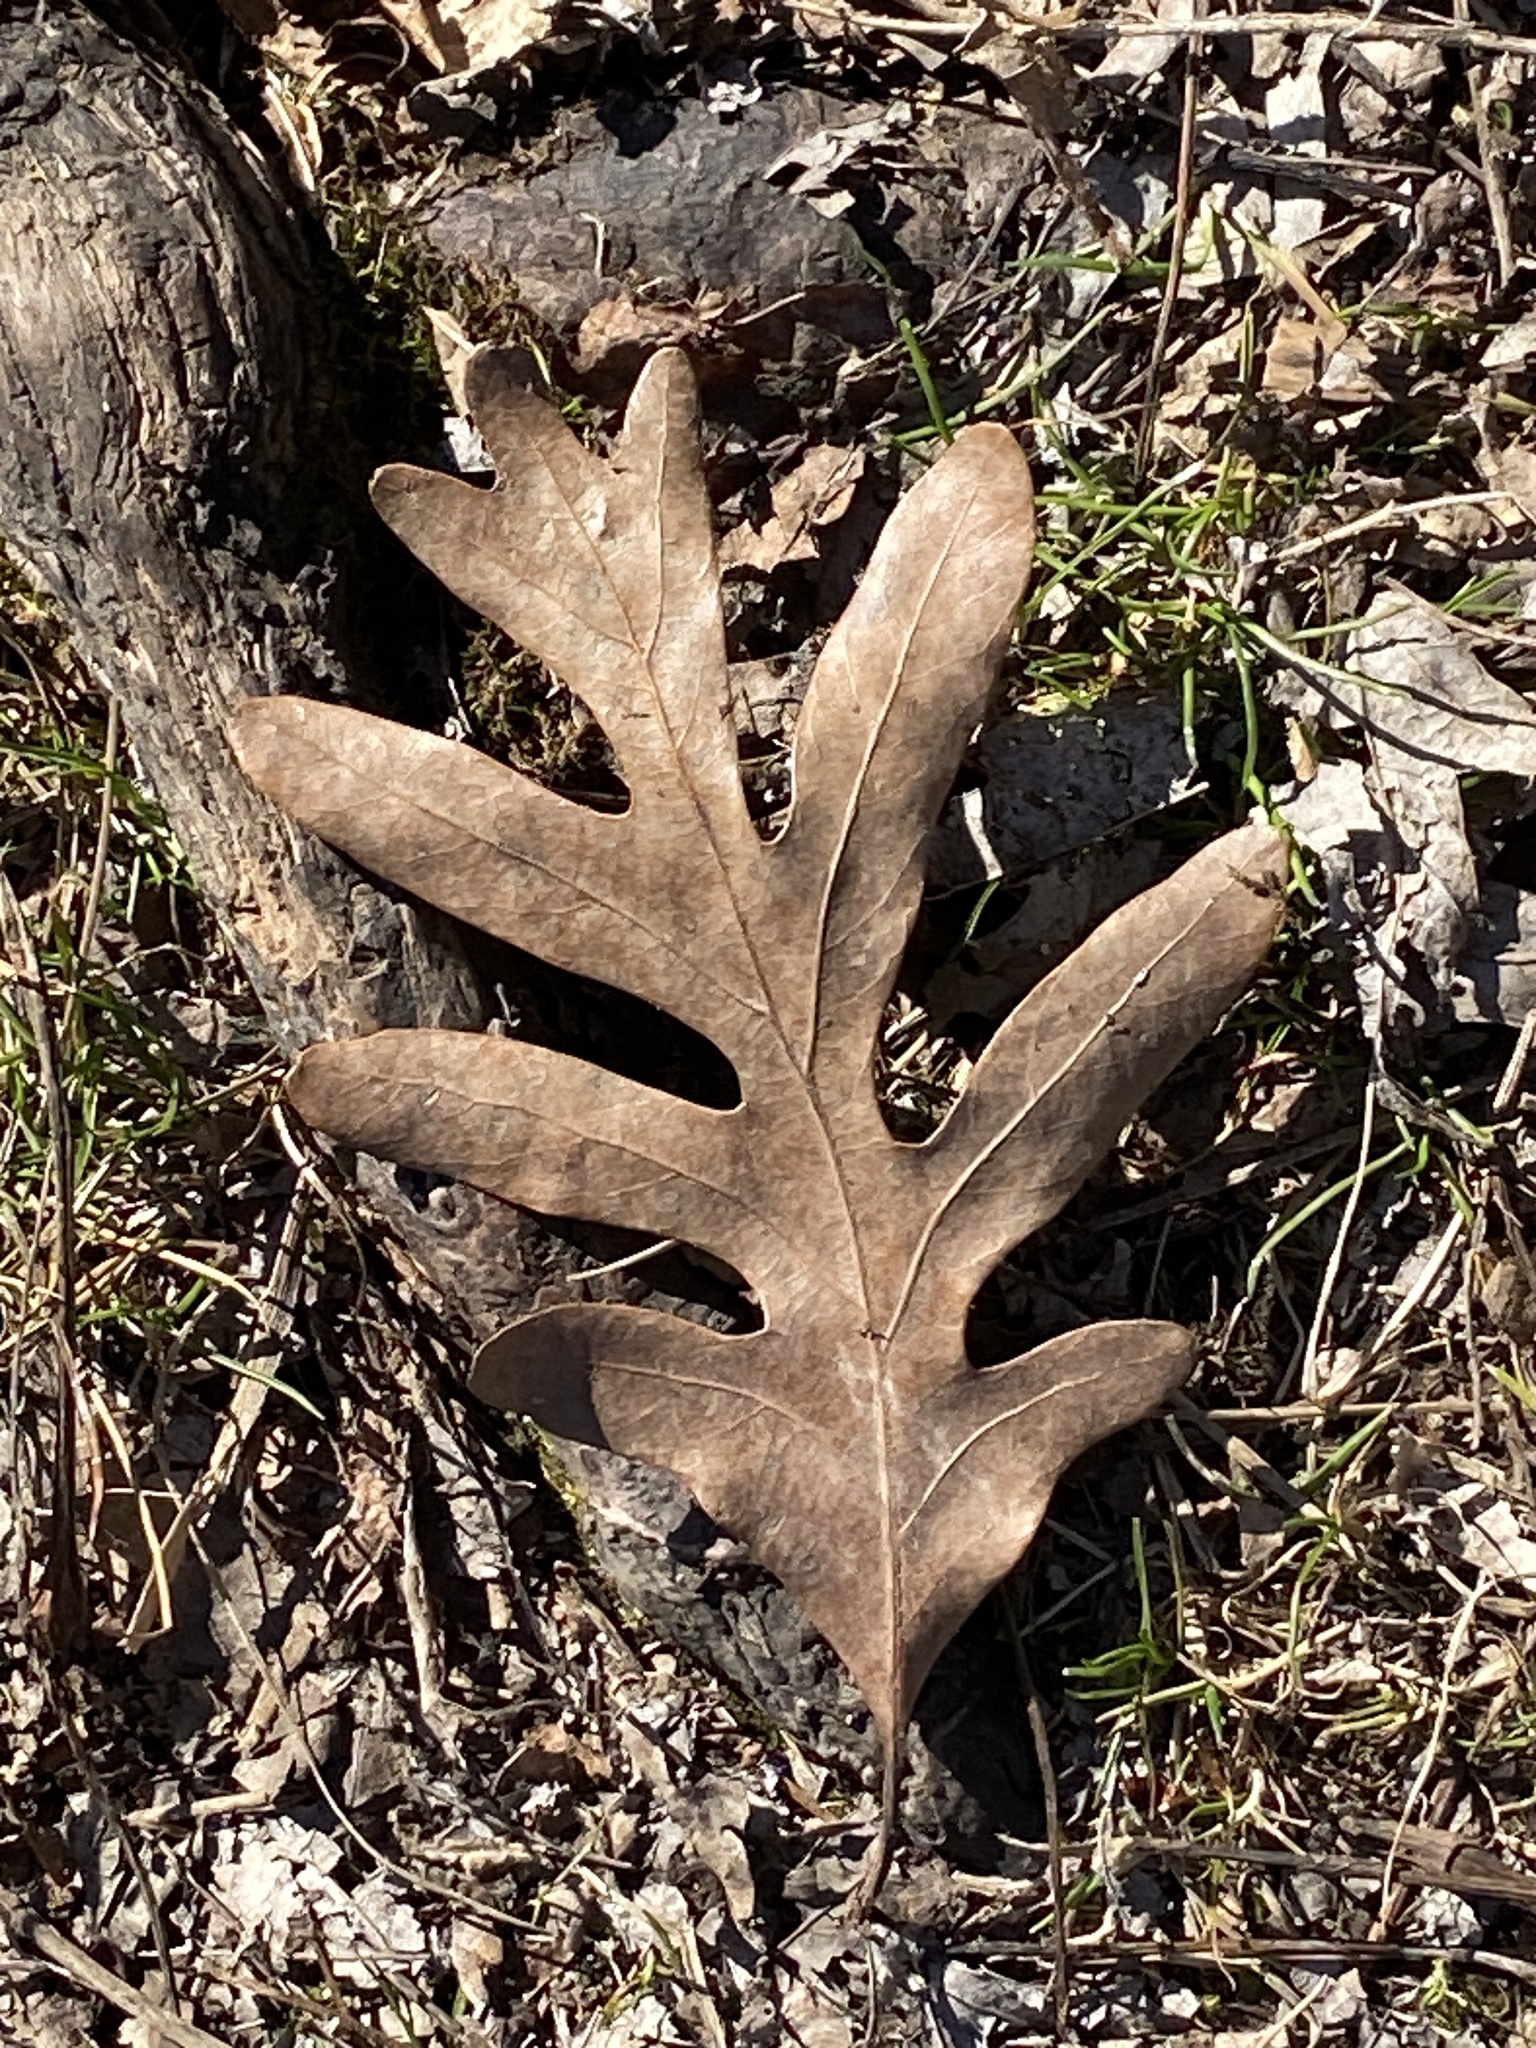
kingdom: Plantae
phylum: Tracheophyta
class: Magnoliopsida
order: Fagales
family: Fagaceae
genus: Quercus
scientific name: Quercus alba
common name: White oak
